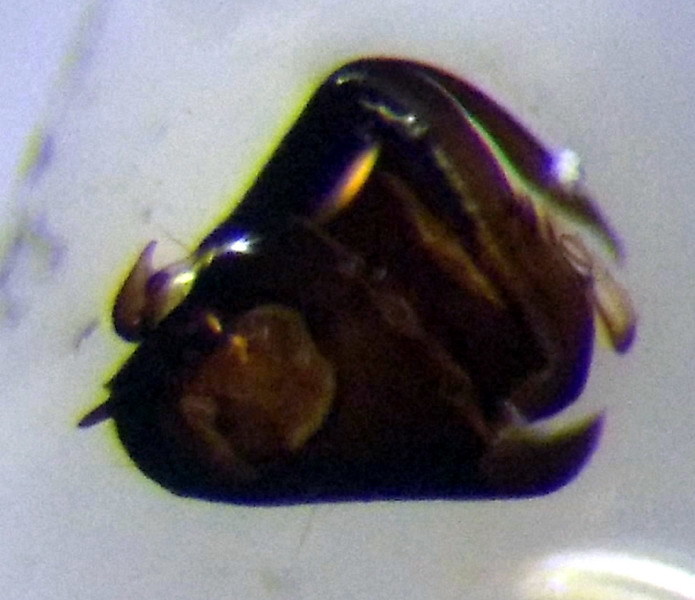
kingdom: Animalia
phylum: Arthropoda
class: Insecta
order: Hemiptera
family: Miridae
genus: Chlamydatus
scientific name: Chlamydatus pullus
